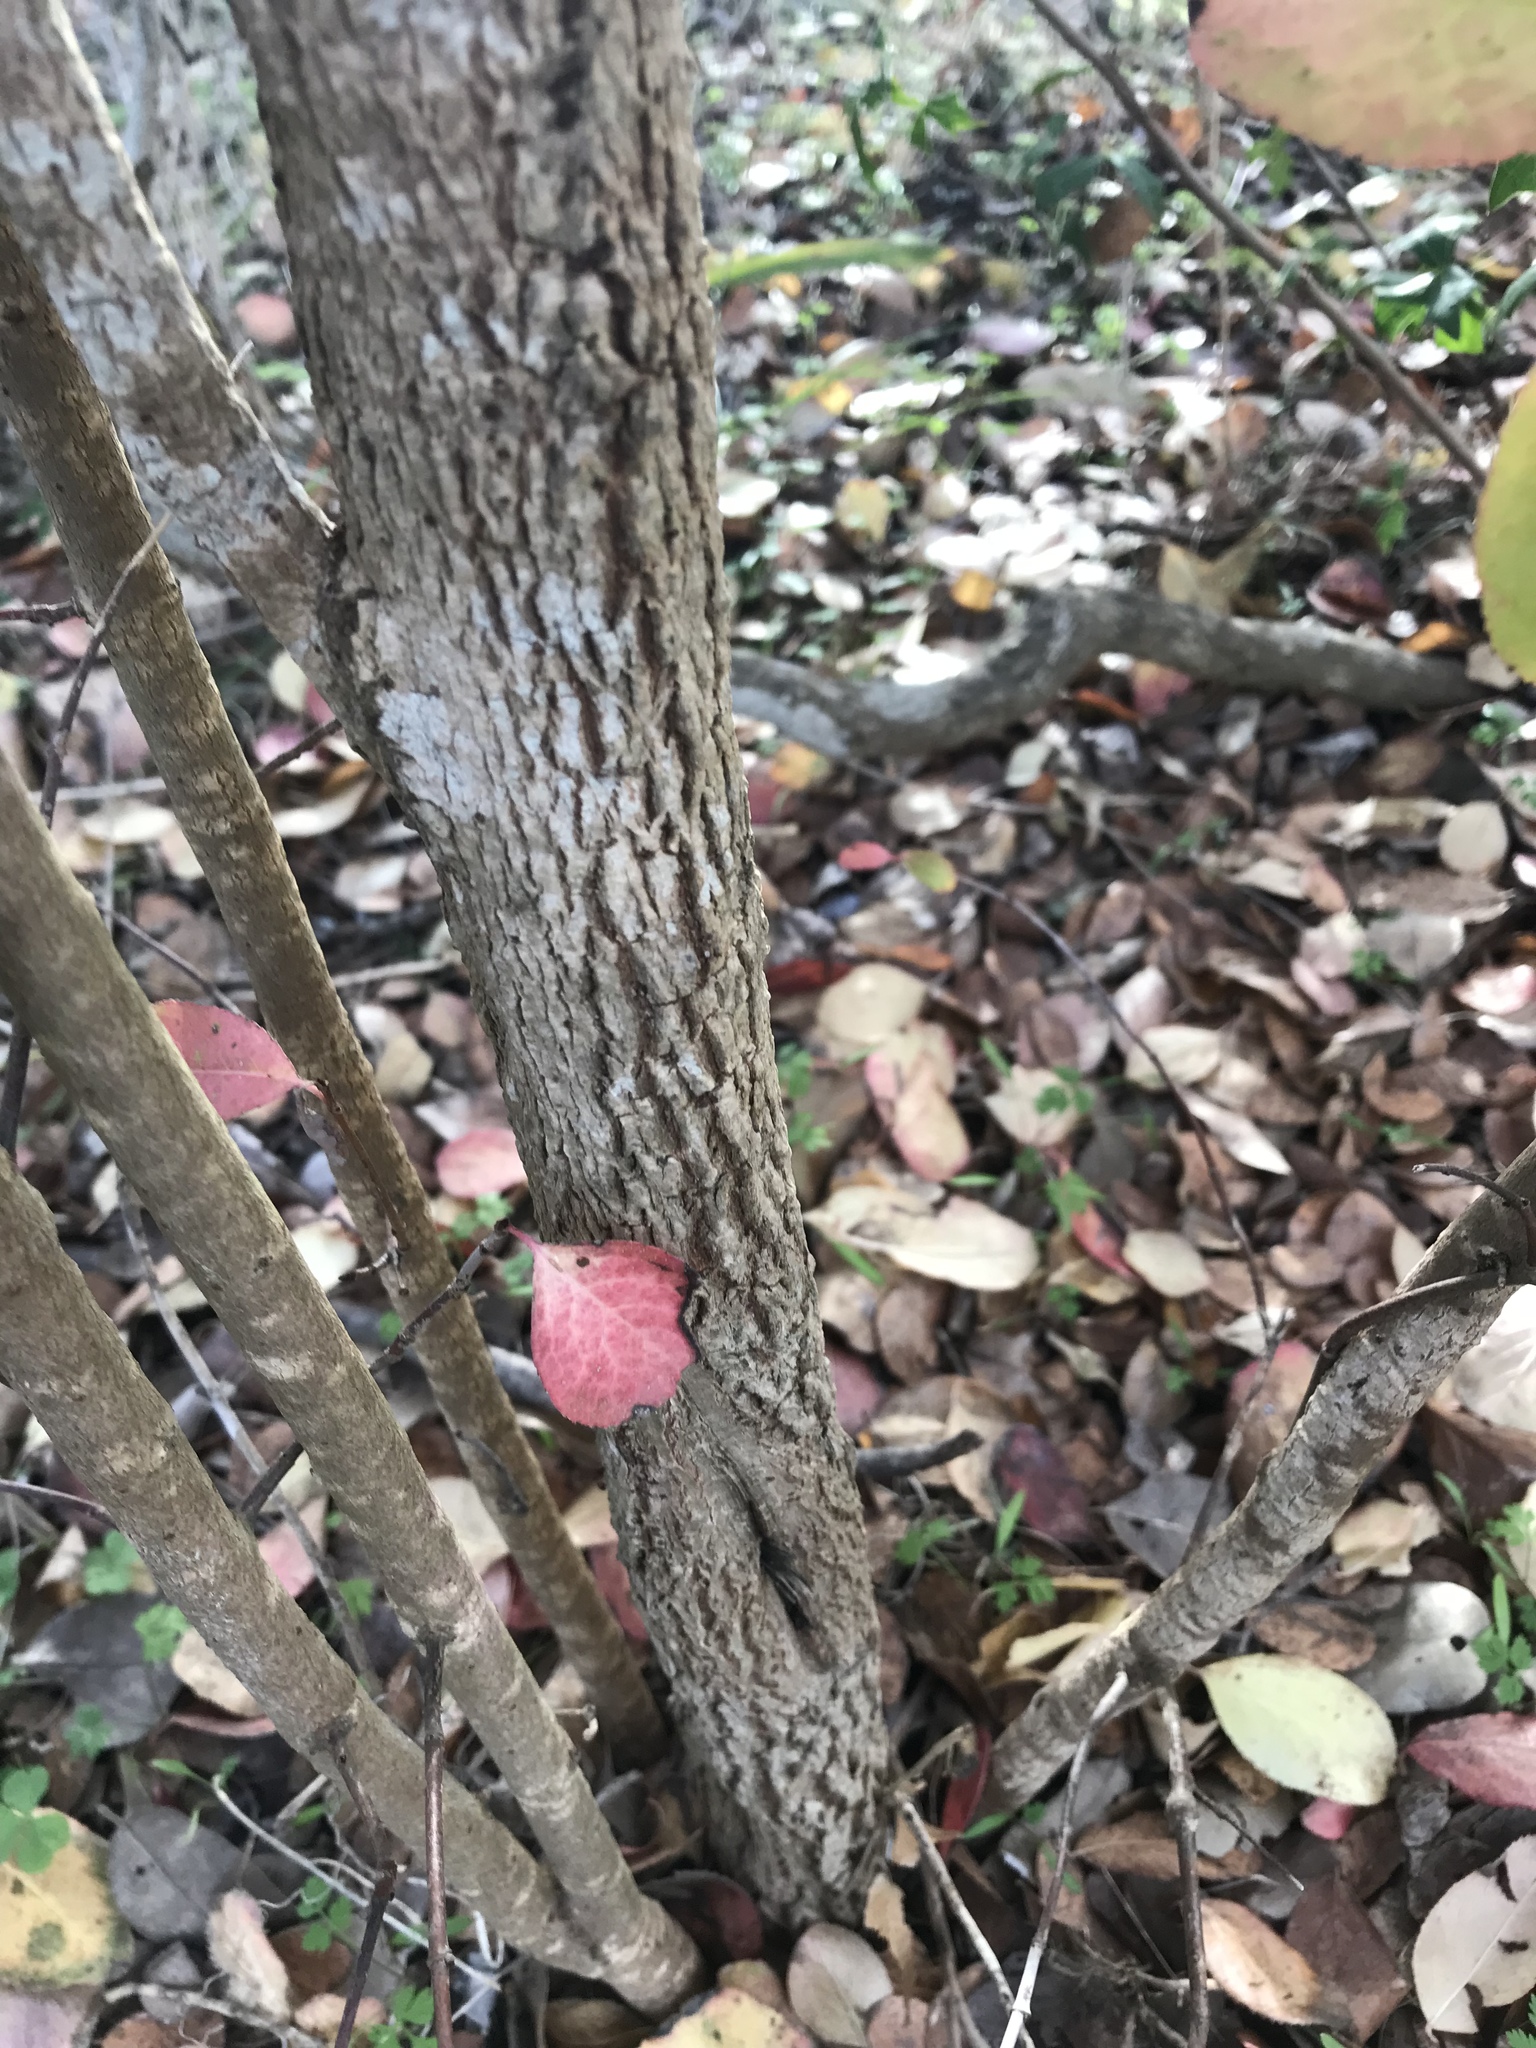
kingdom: Plantae
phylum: Tracheophyta
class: Magnoliopsida
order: Dipsacales
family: Viburnaceae
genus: Viburnum
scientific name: Viburnum rufidulum
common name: Blue haw
